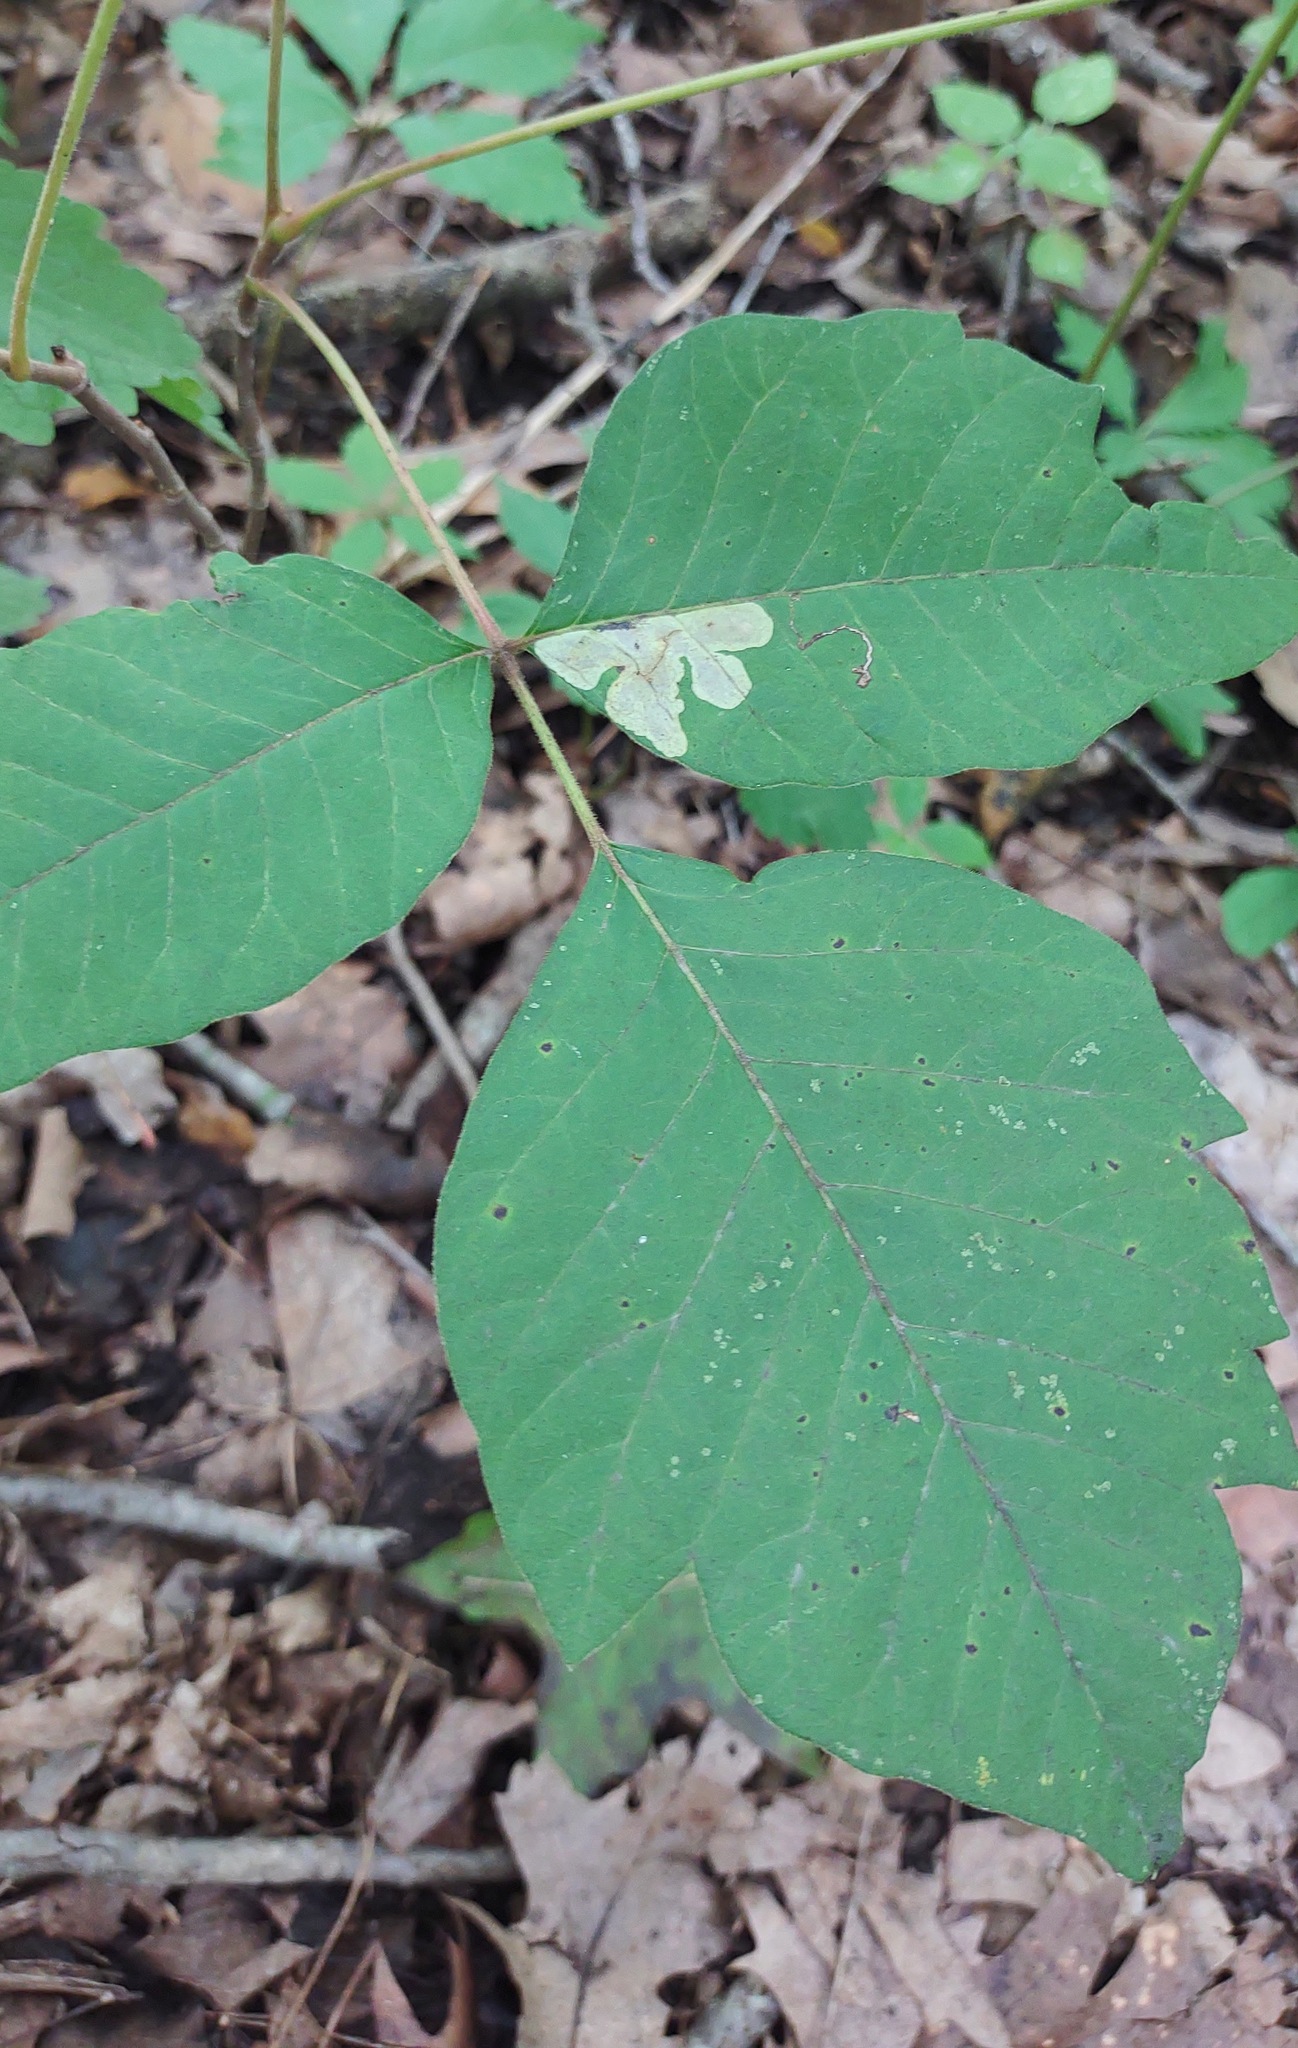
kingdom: Animalia
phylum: Arthropoda
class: Insecta
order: Lepidoptera
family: Gracillariidae
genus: Cameraria
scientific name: Cameraria guttifinitella
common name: Poison ivy leaf-miner moth
